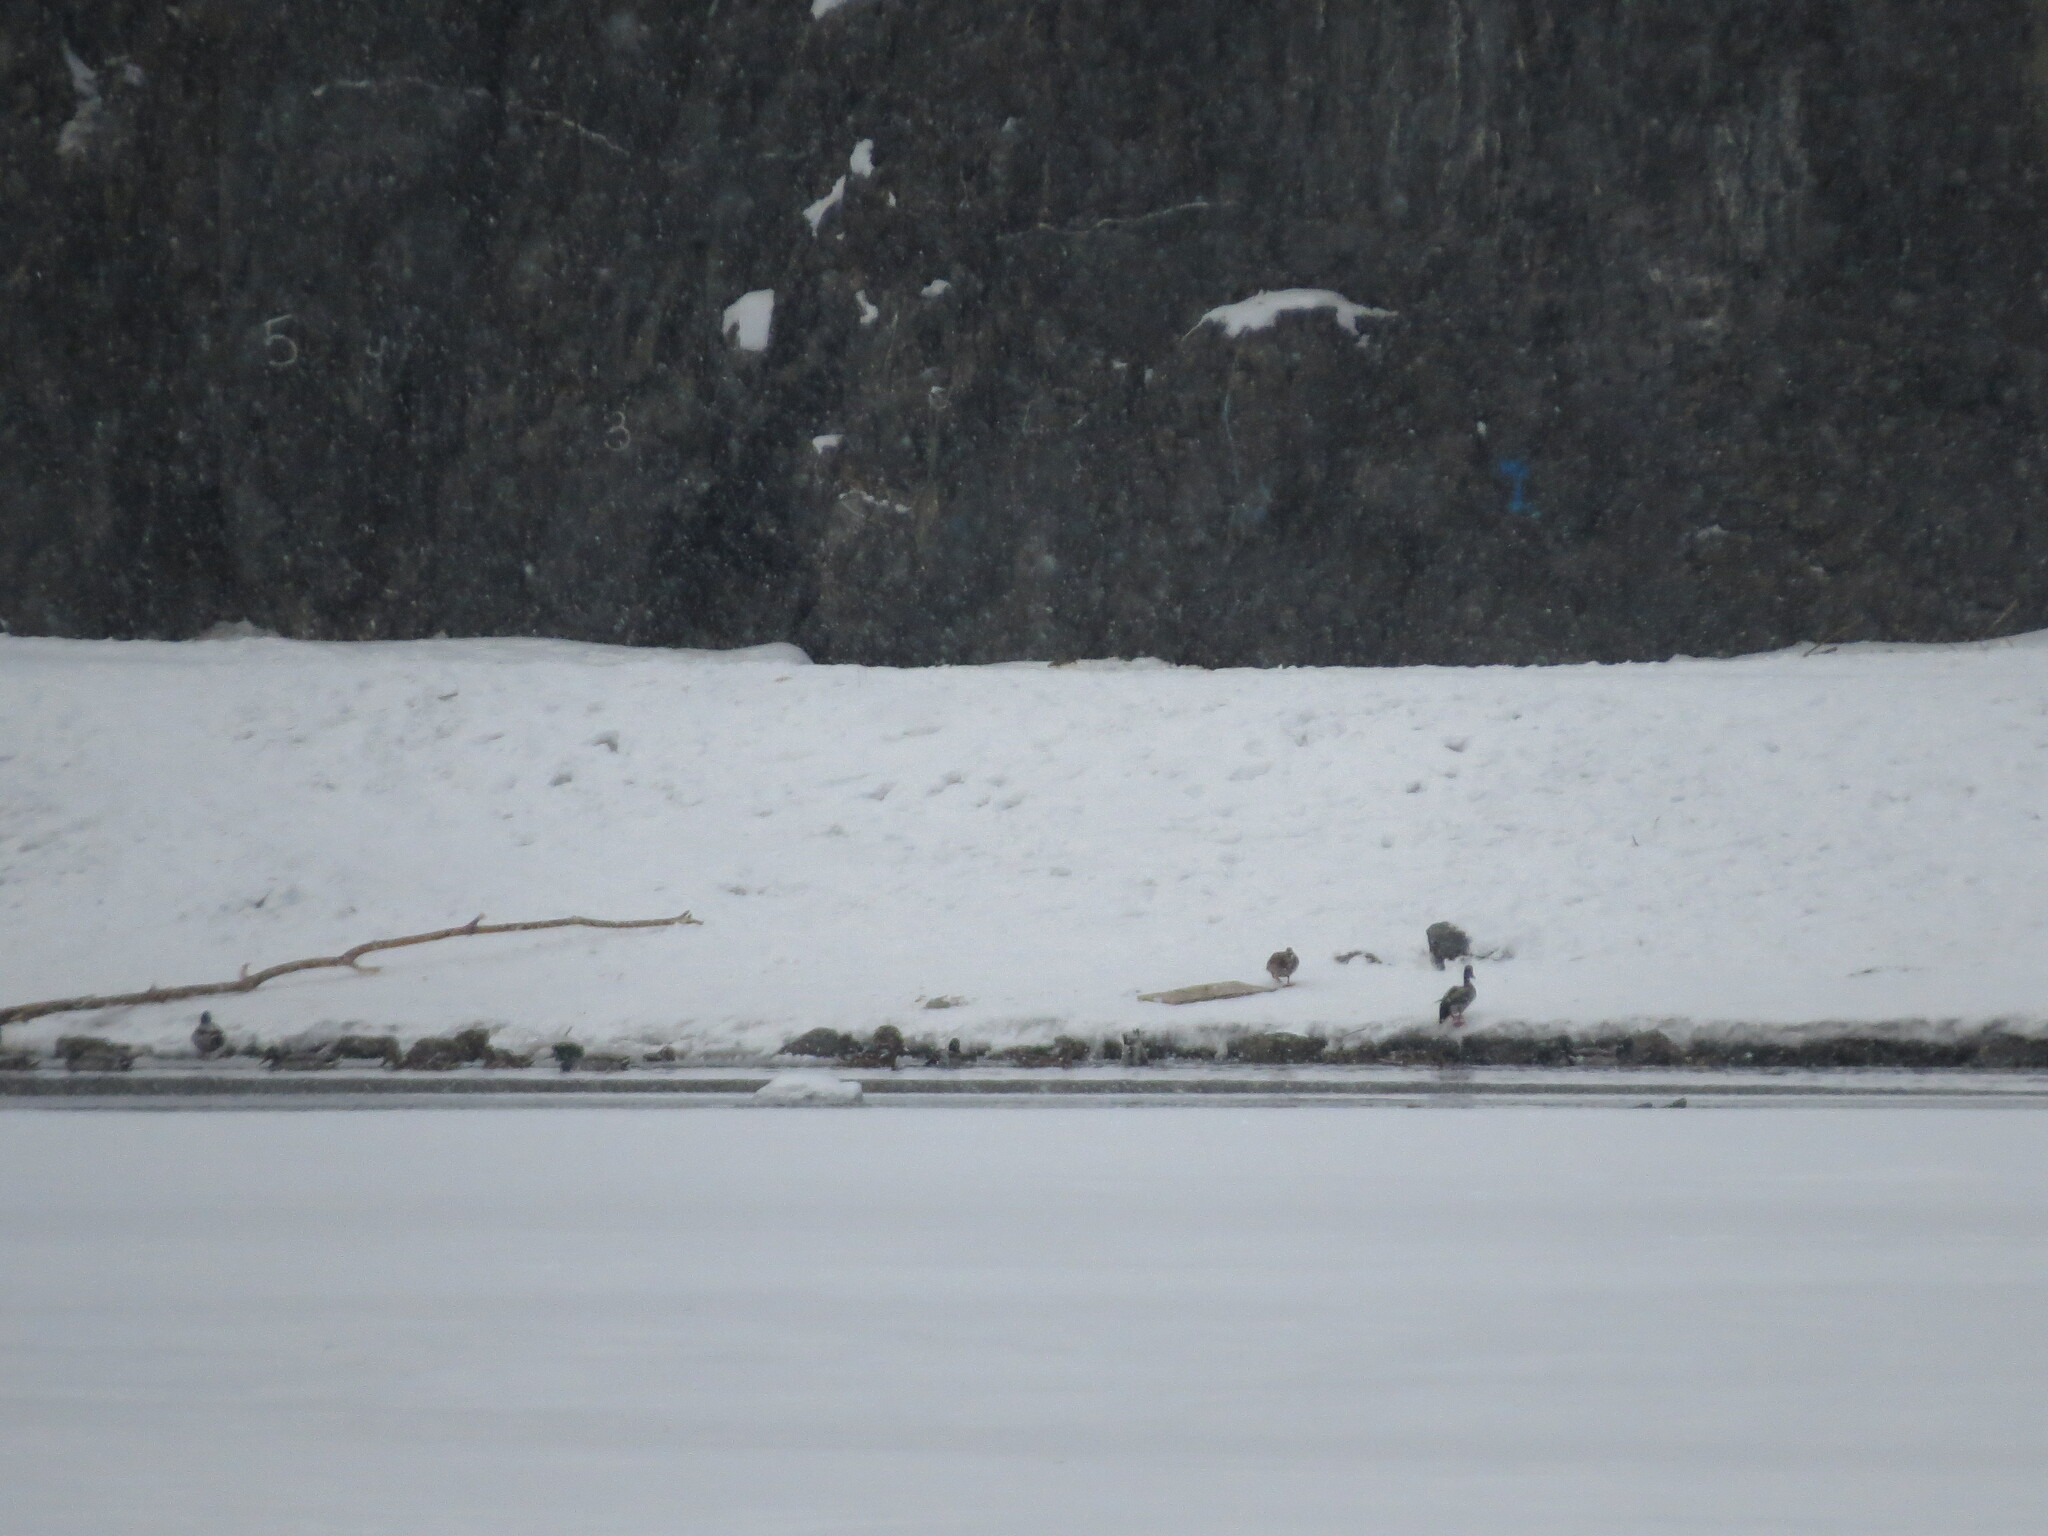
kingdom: Animalia
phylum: Chordata
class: Aves
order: Anseriformes
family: Anatidae
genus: Anas
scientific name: Anas platyrhynchos
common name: Mallard
